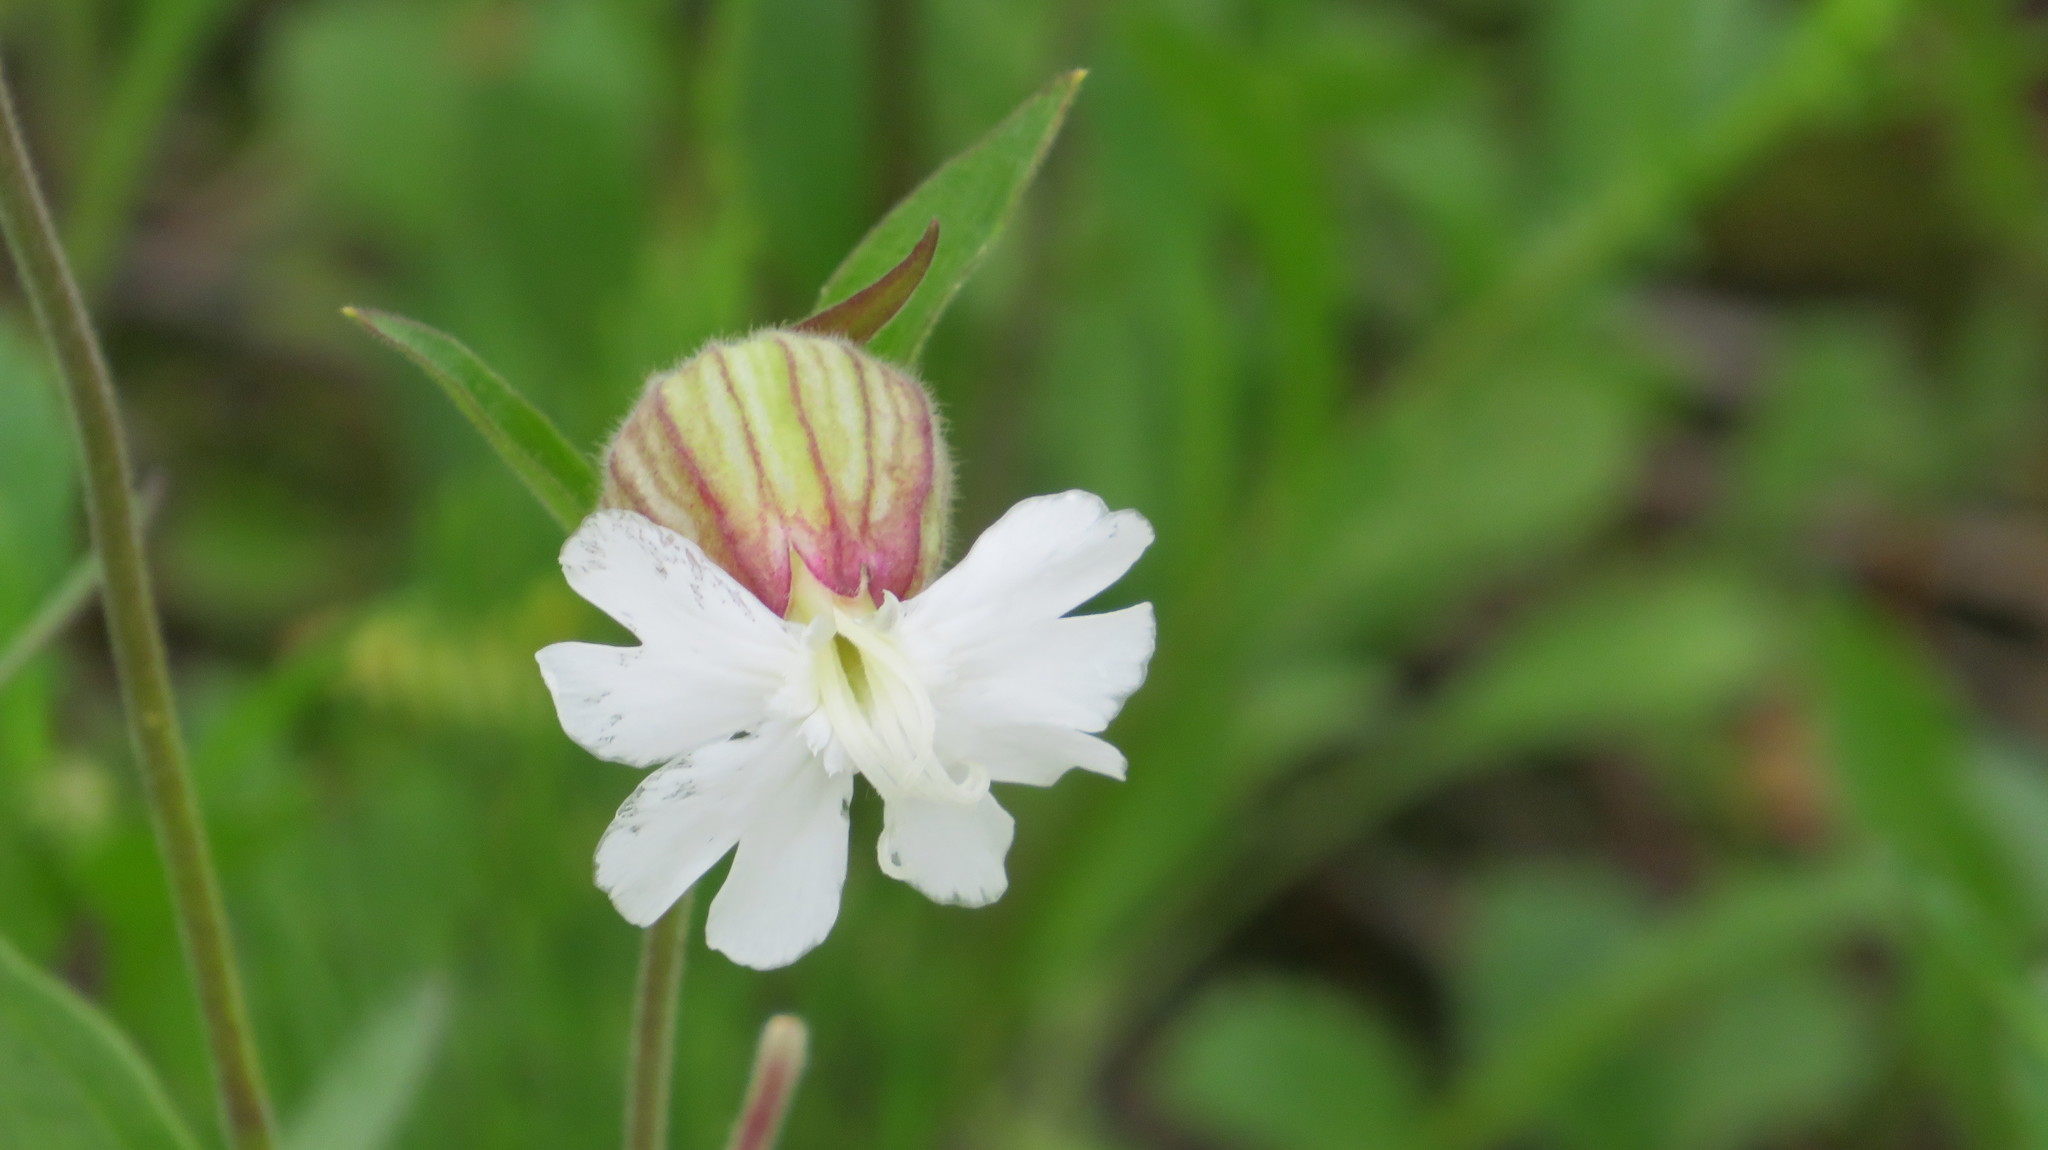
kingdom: Plantae
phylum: Tracheophyta
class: Magnoliopsida
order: Caryophyllales
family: Caryophyllaceae
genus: Silene
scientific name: Silene latifolia
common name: White campion
